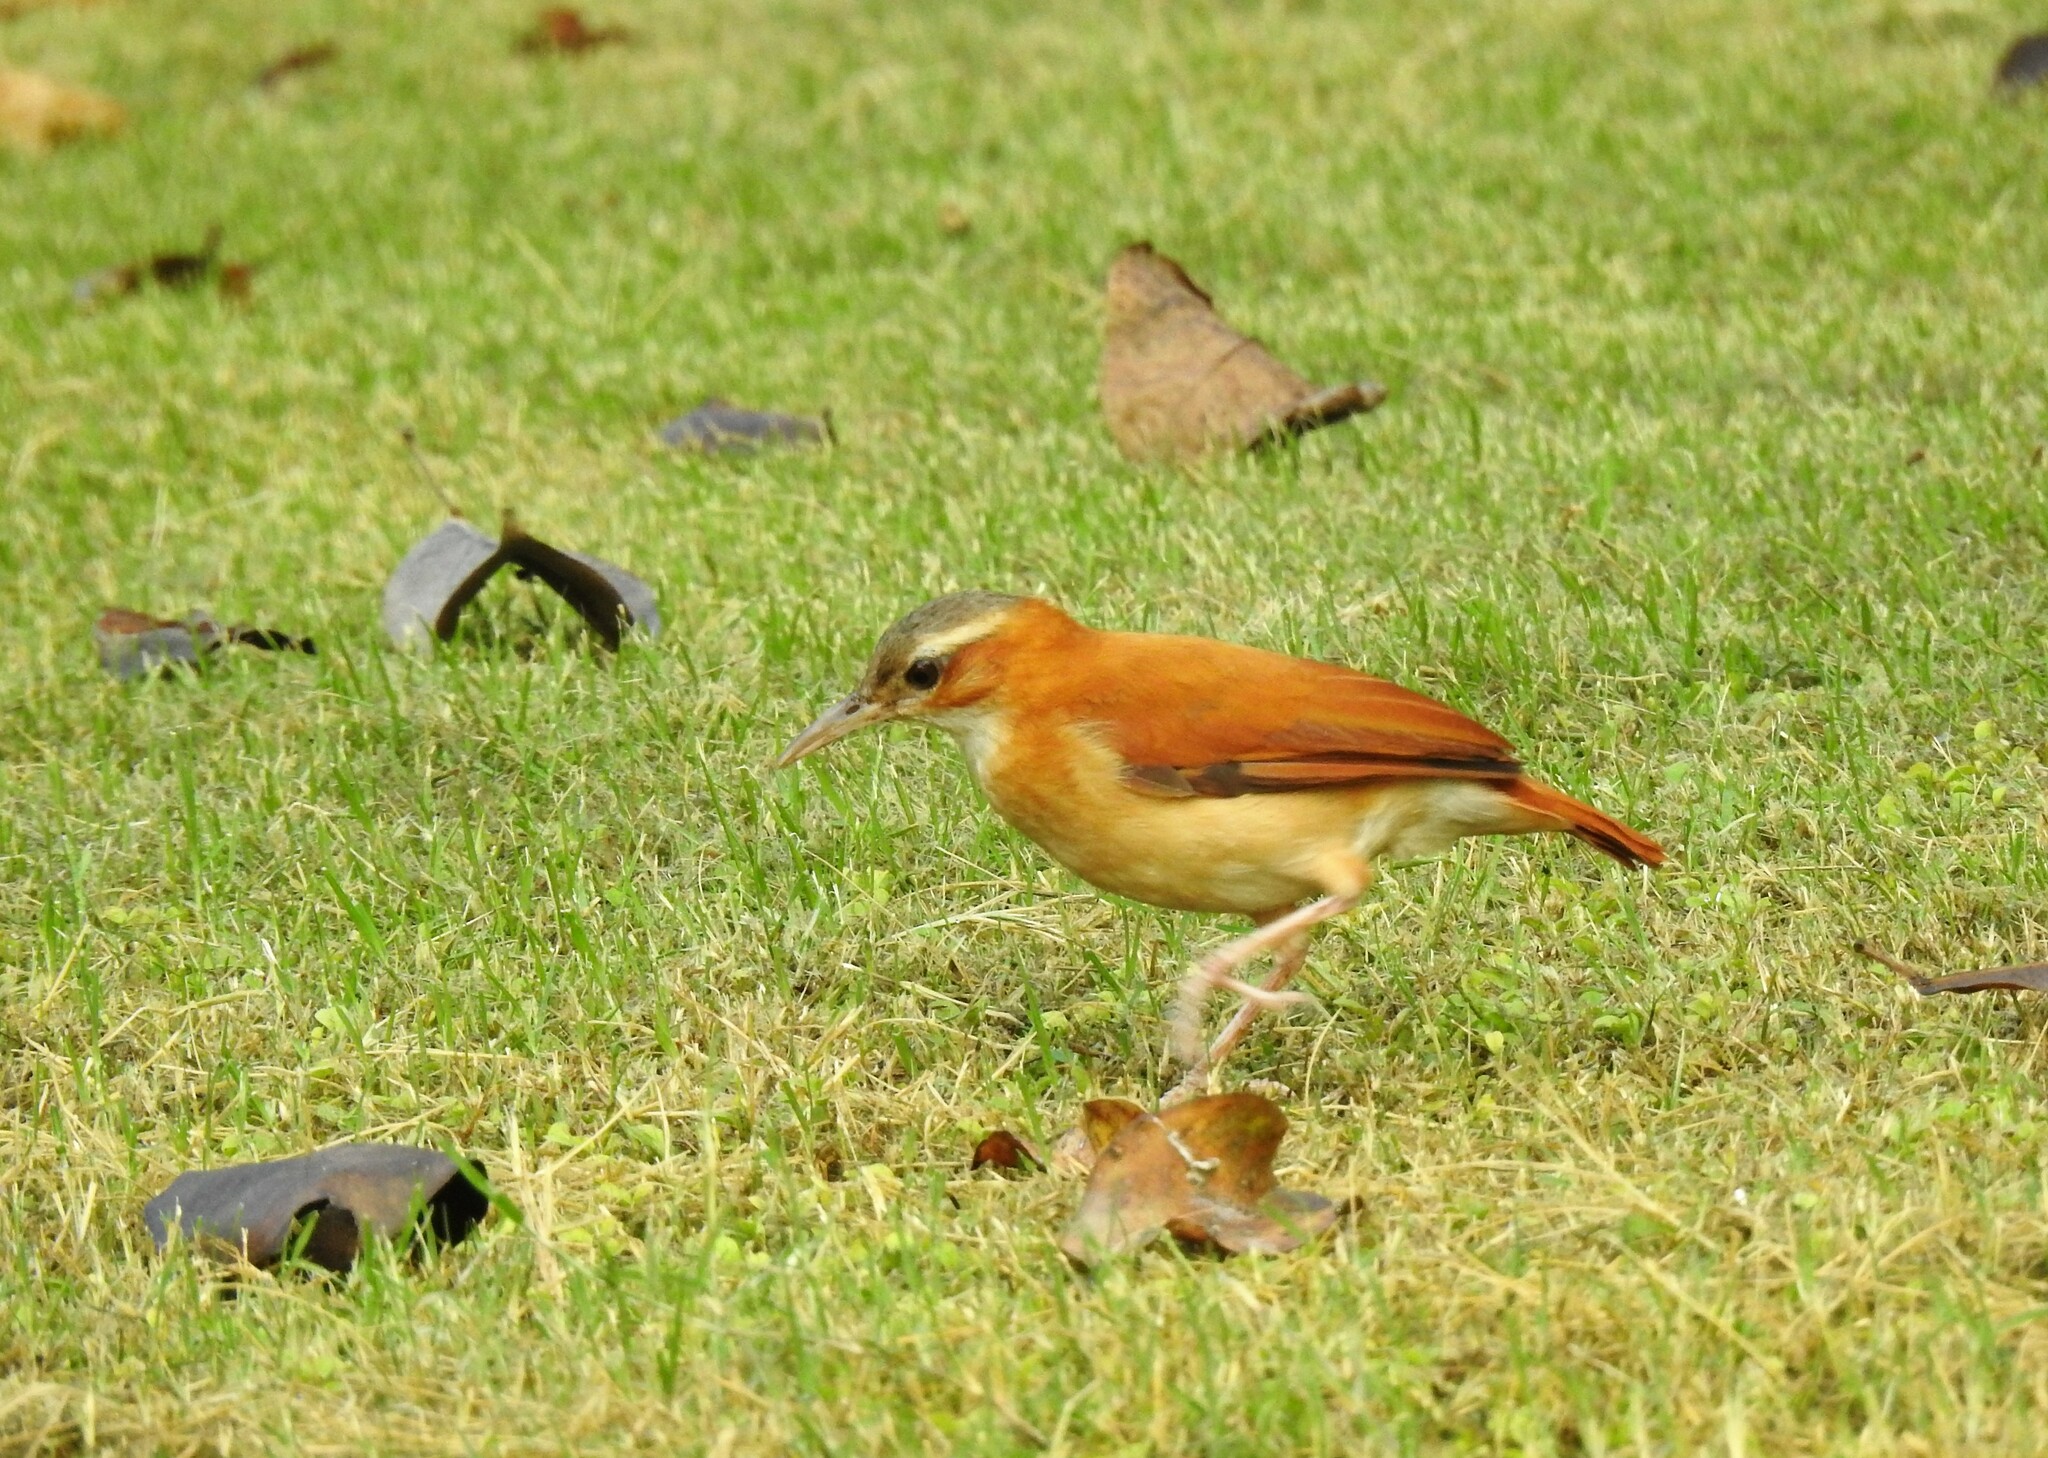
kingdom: Animalia
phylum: Chordata
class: Aves
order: Passeriformes
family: Furnariidae
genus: Furnarius
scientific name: Furnarius longirostris
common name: Caribbean hornero
